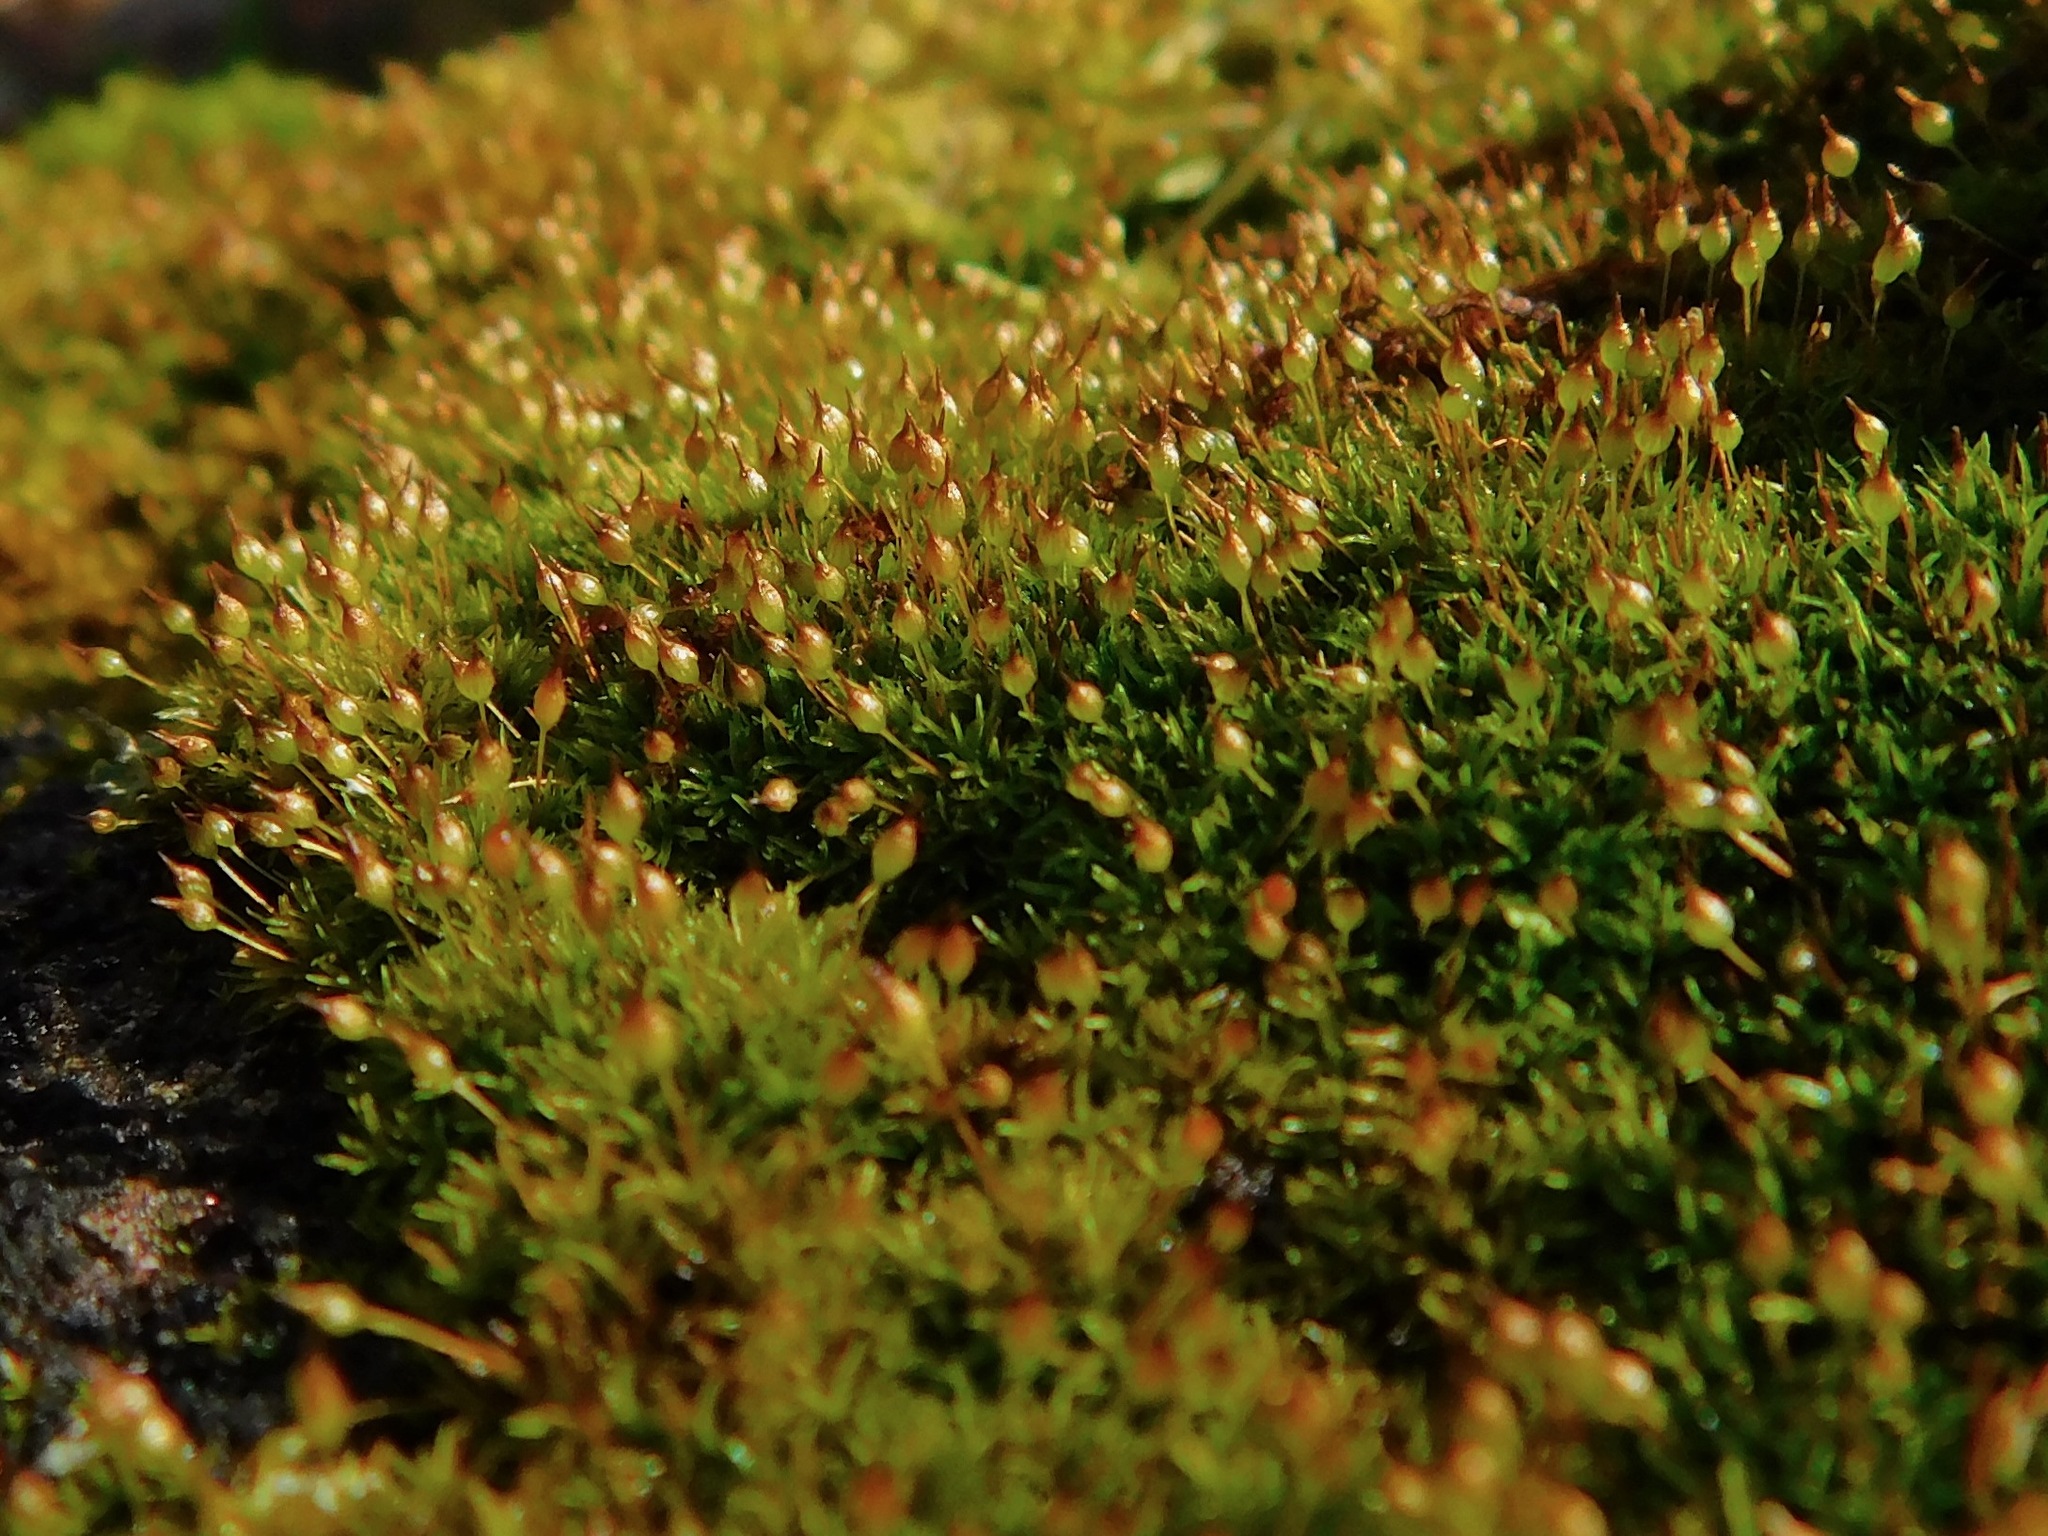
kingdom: Plantae
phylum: Bryophyta
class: Bryopsida
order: Grimmiales
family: Ptychomitriaceae
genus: Ptychomitrium
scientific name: Ptychomitrium incurvum
